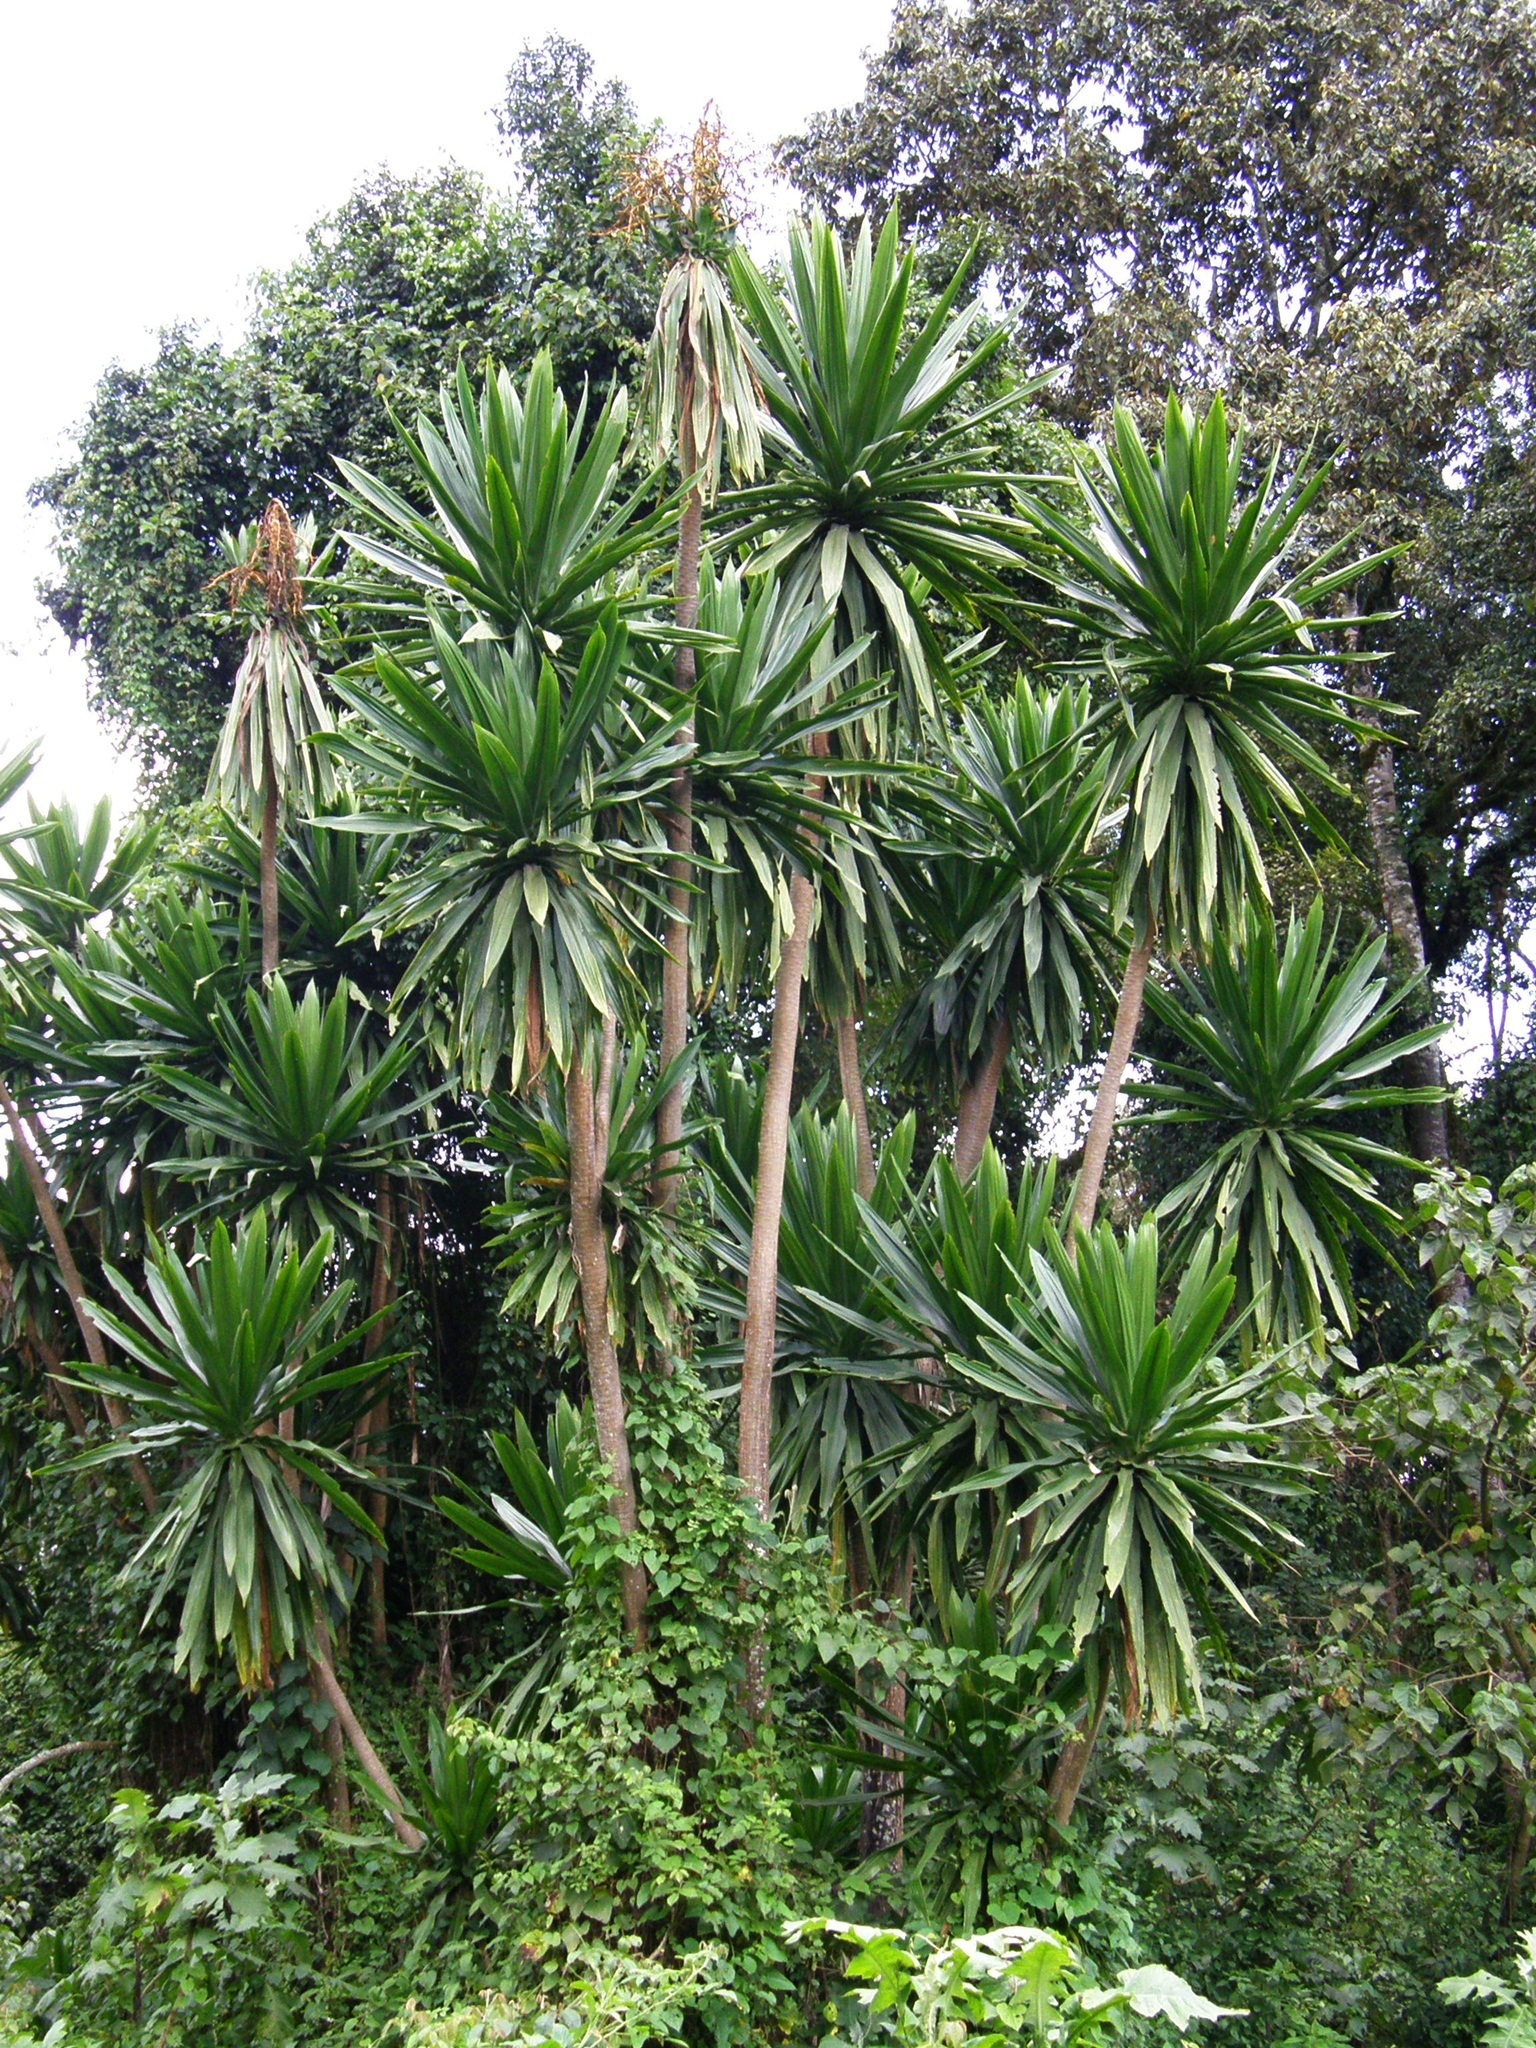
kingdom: Plantae
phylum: Tracheophyta
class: Liliopsida
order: Asparagales
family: Asparagaceae
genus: Dracaena
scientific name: Dracaena steudneri
